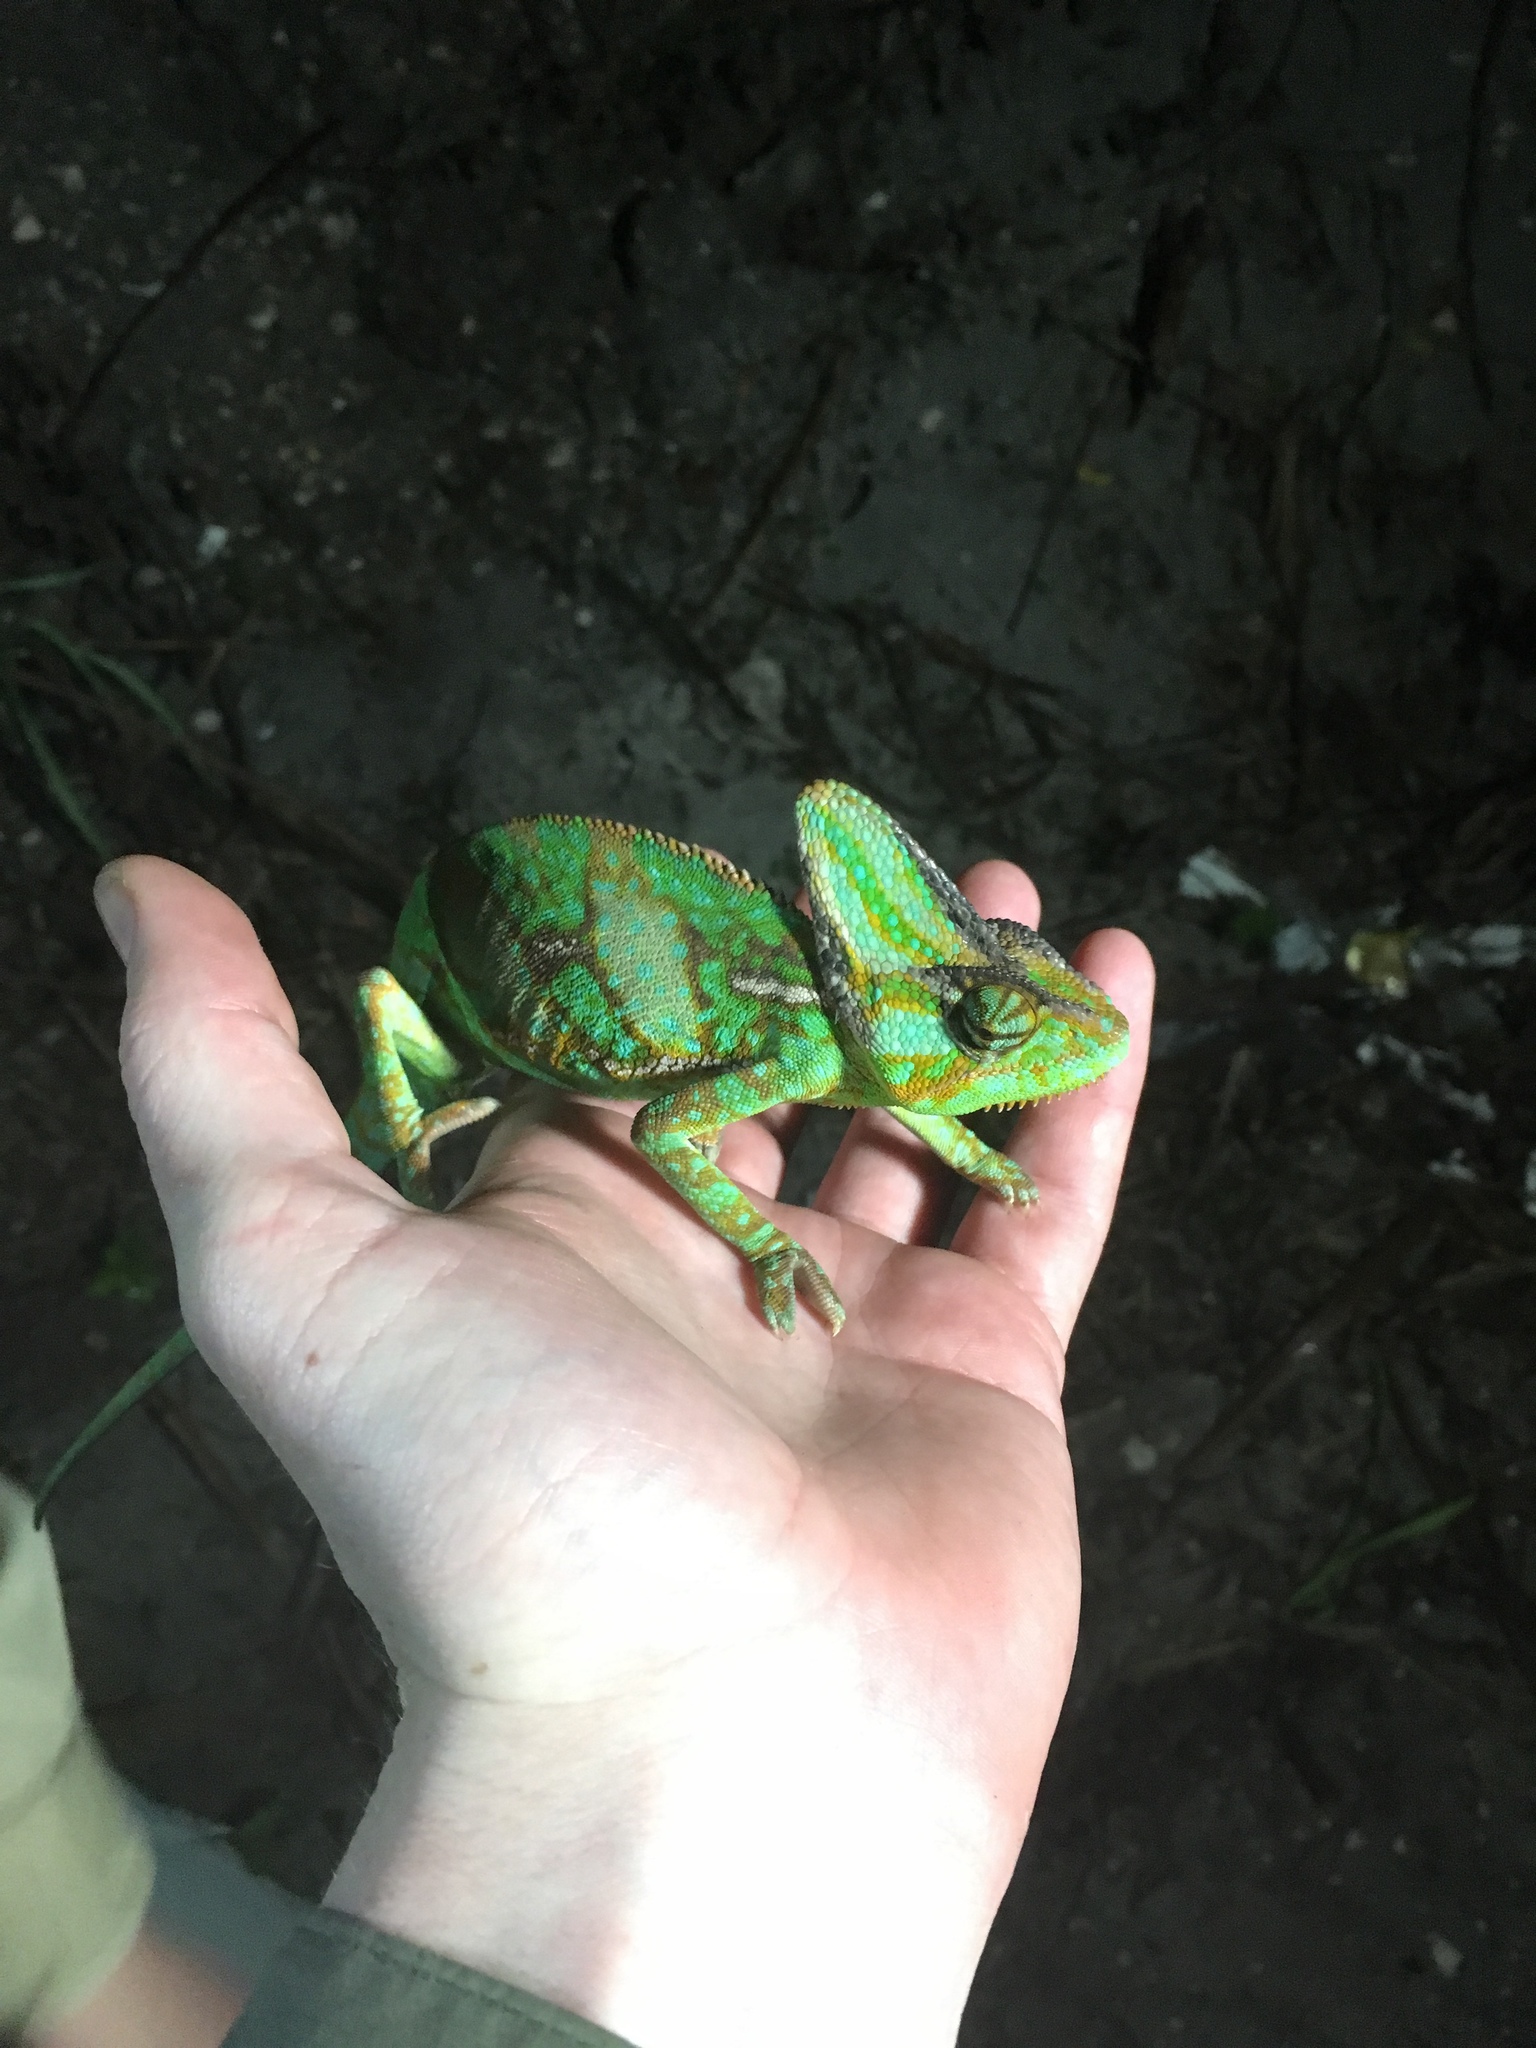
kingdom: Animalia
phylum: Chordata
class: Squamata
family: Chamaeleonidae
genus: Chamaeleo
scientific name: Chamaeleo calyptratus
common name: Veiled chameleon
